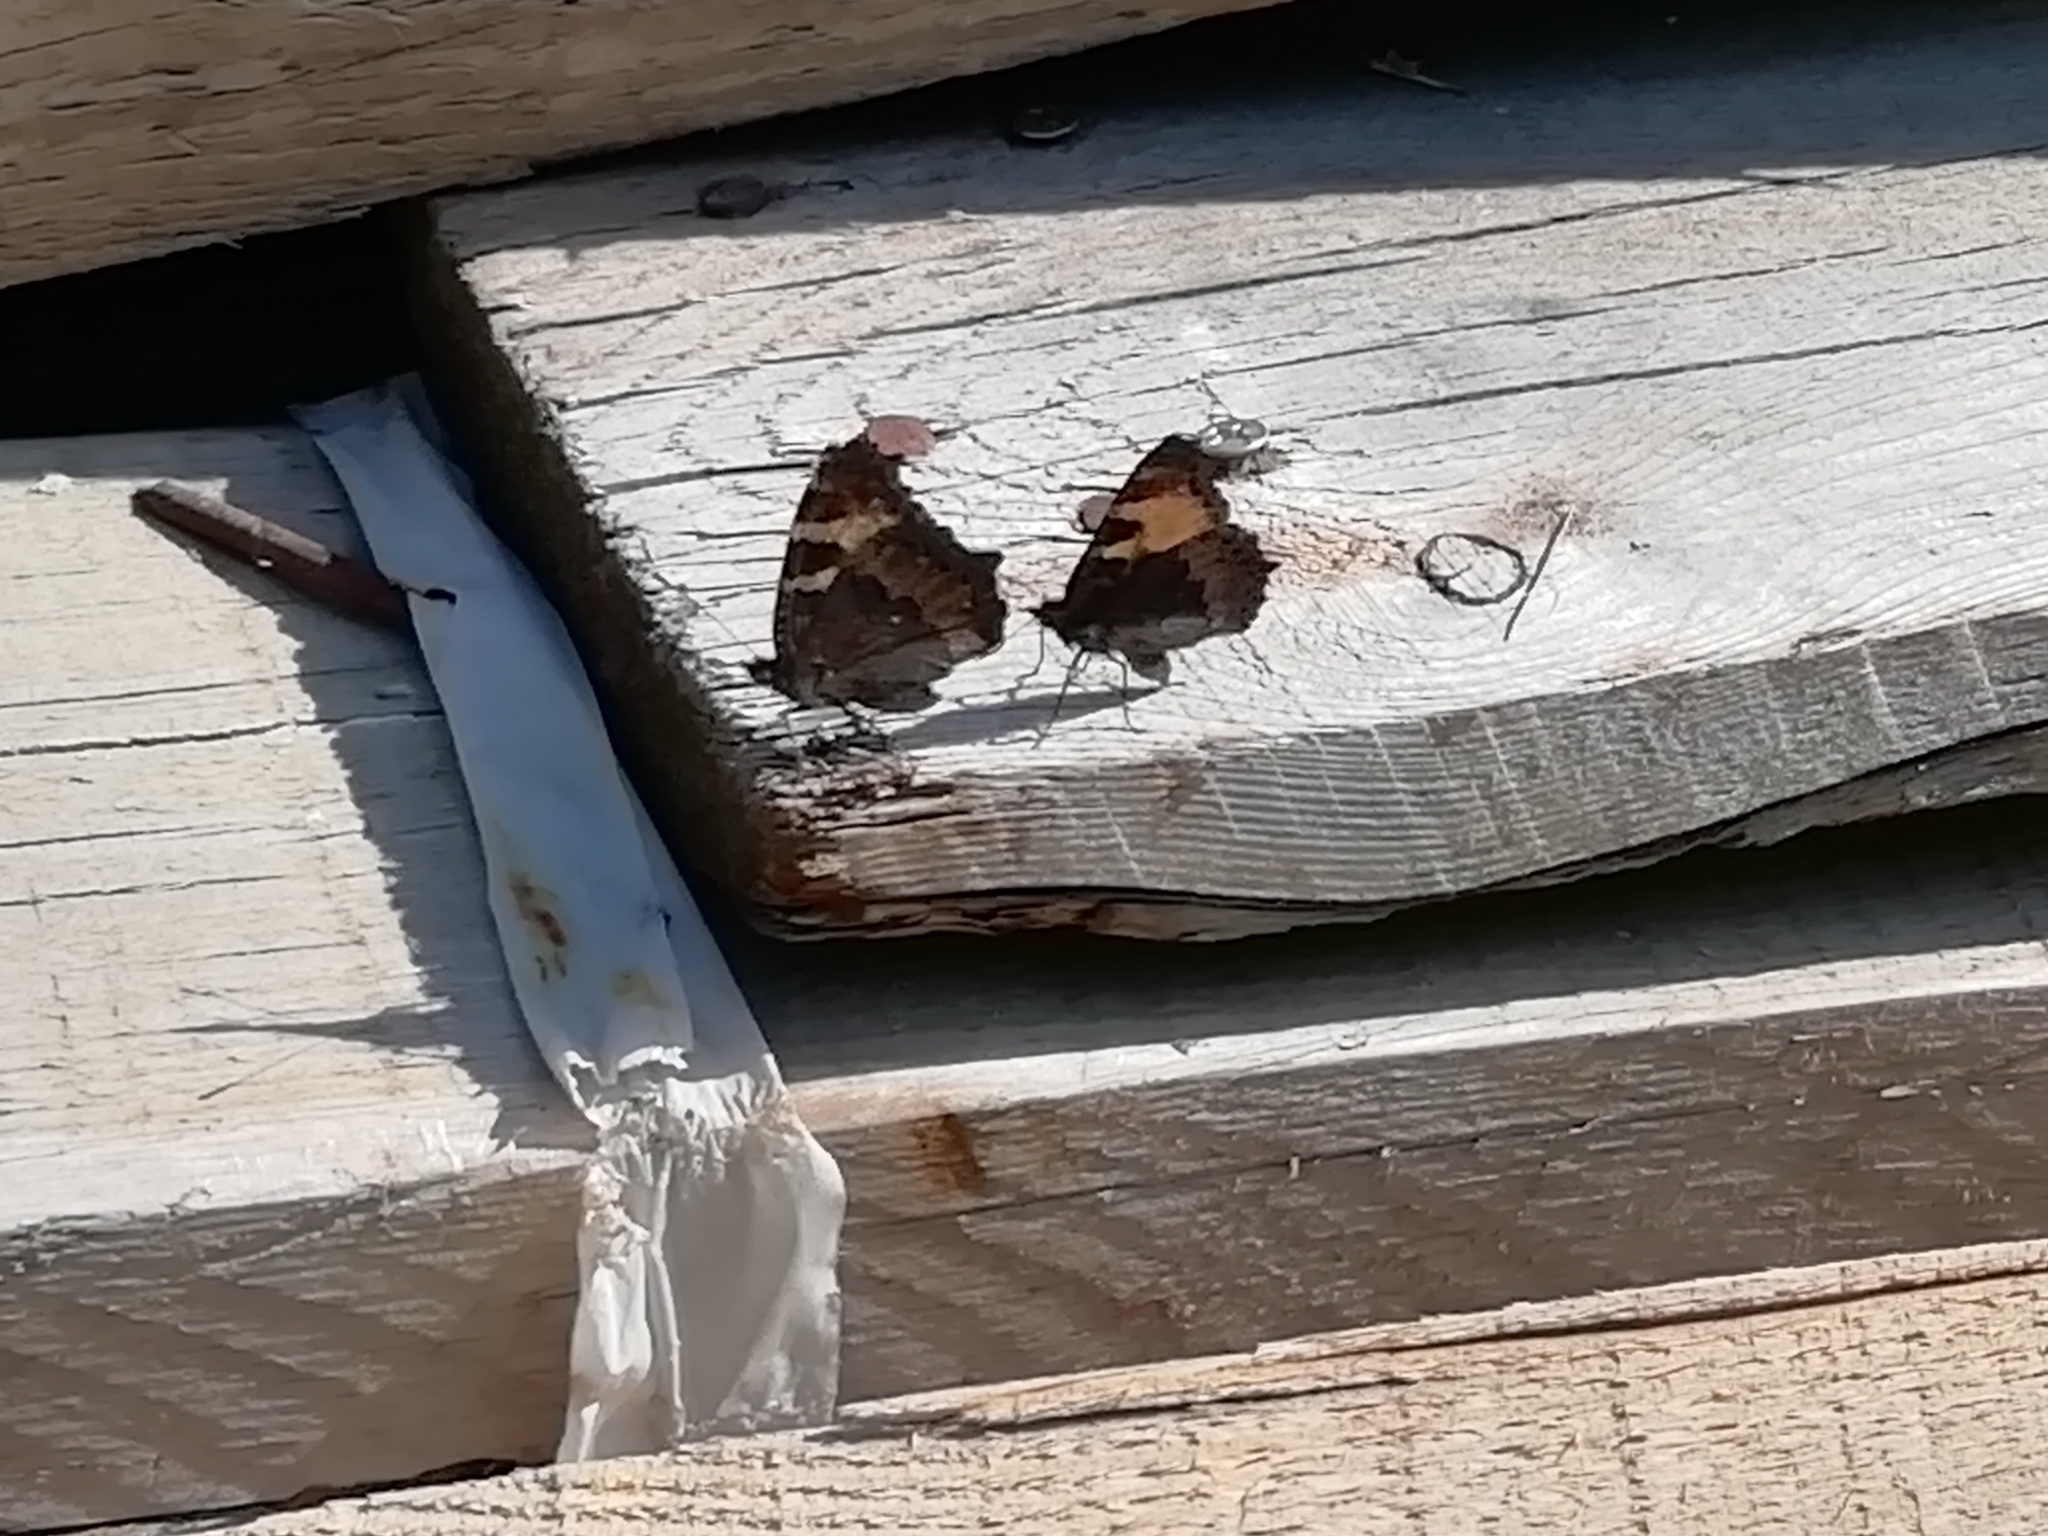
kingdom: Animalia
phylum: Arthropoda
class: Insecta
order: Lepidoptera
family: Nymphalidae
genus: Aglais
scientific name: Aglais urticae
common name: Small tortoiseshell
